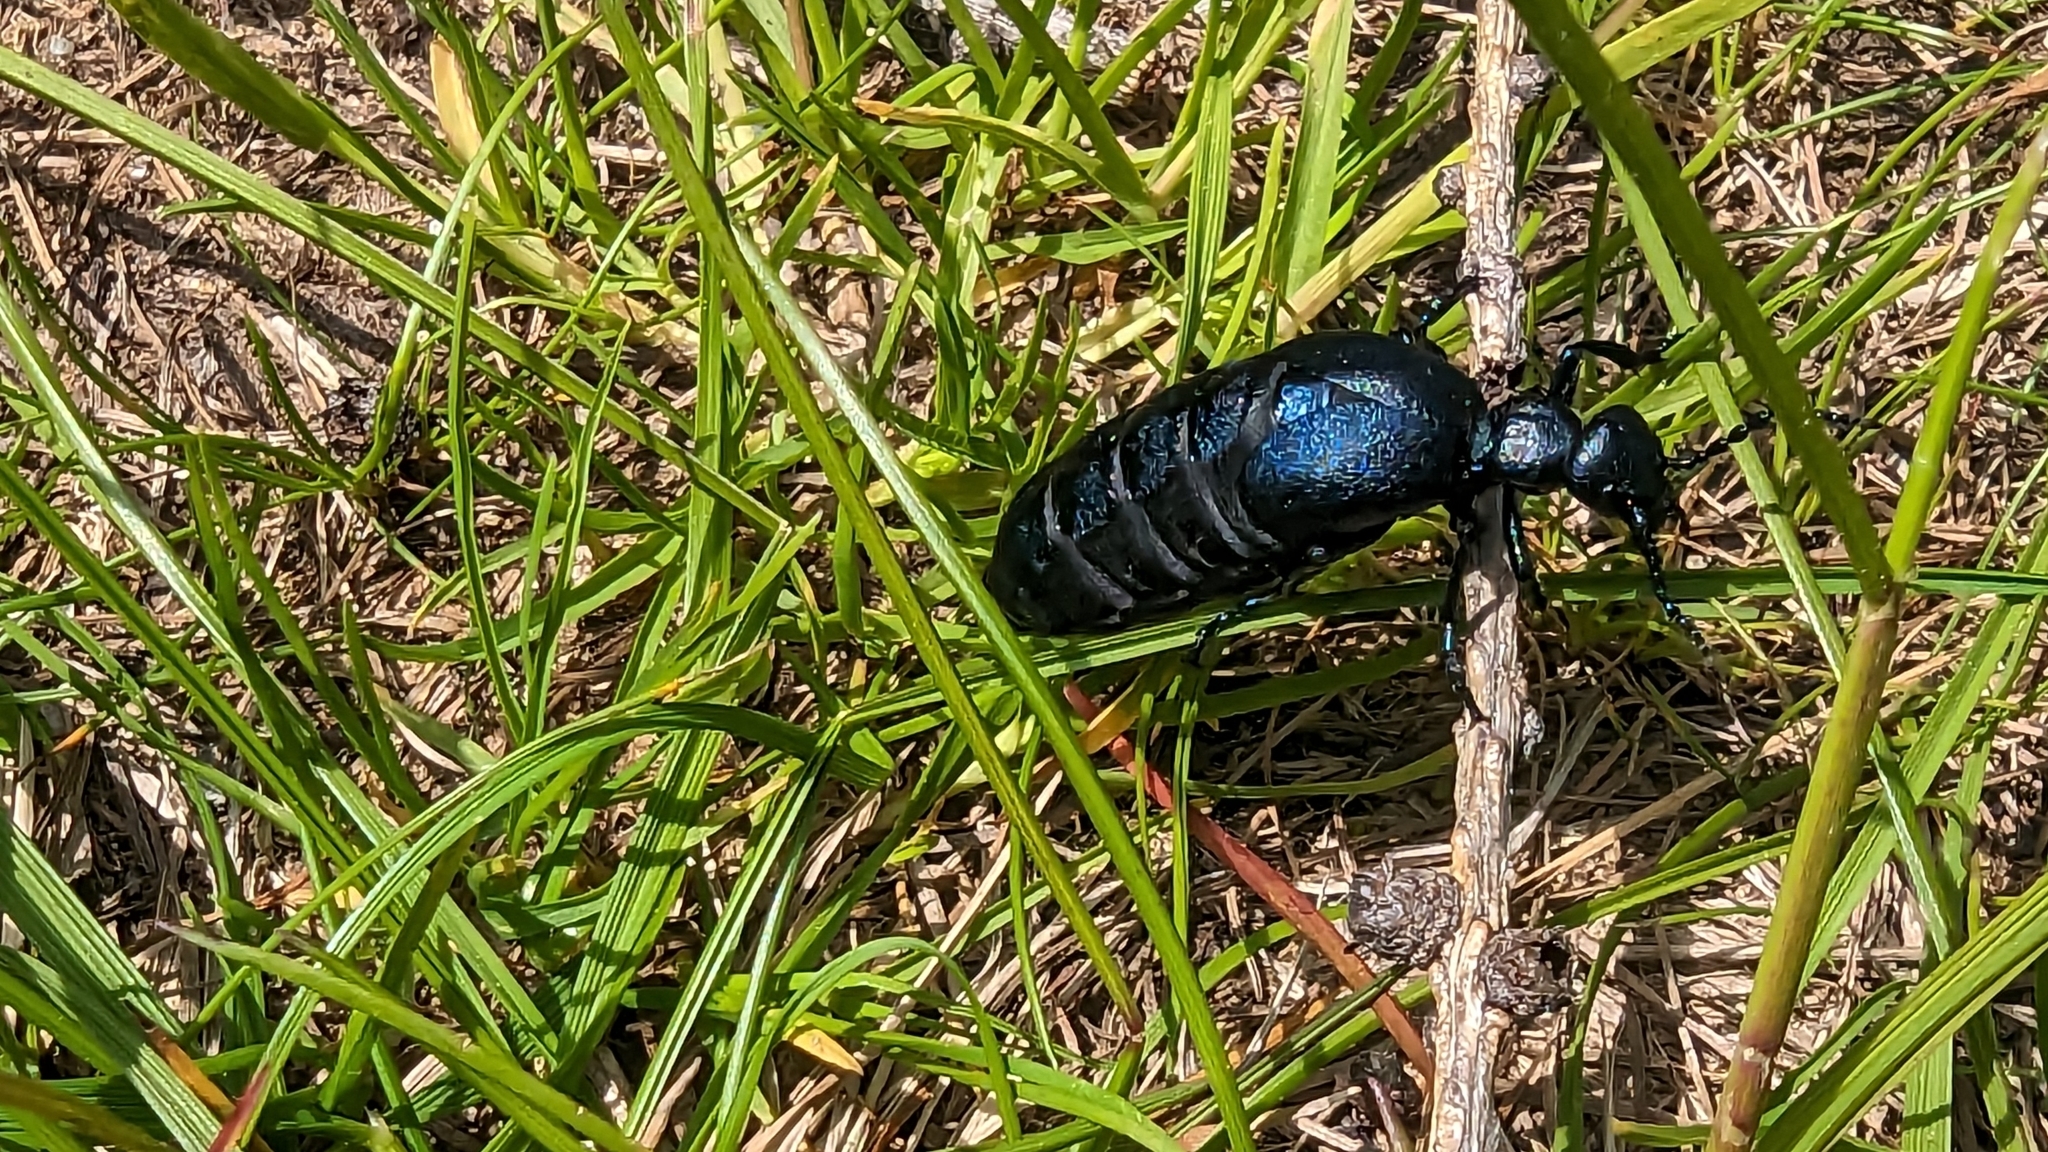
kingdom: Animalia
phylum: Arthropoda
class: Insecta
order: Coleoptera
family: Meloidae
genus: Meloe
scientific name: Meloe violaceus
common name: Violet oil-beetle
